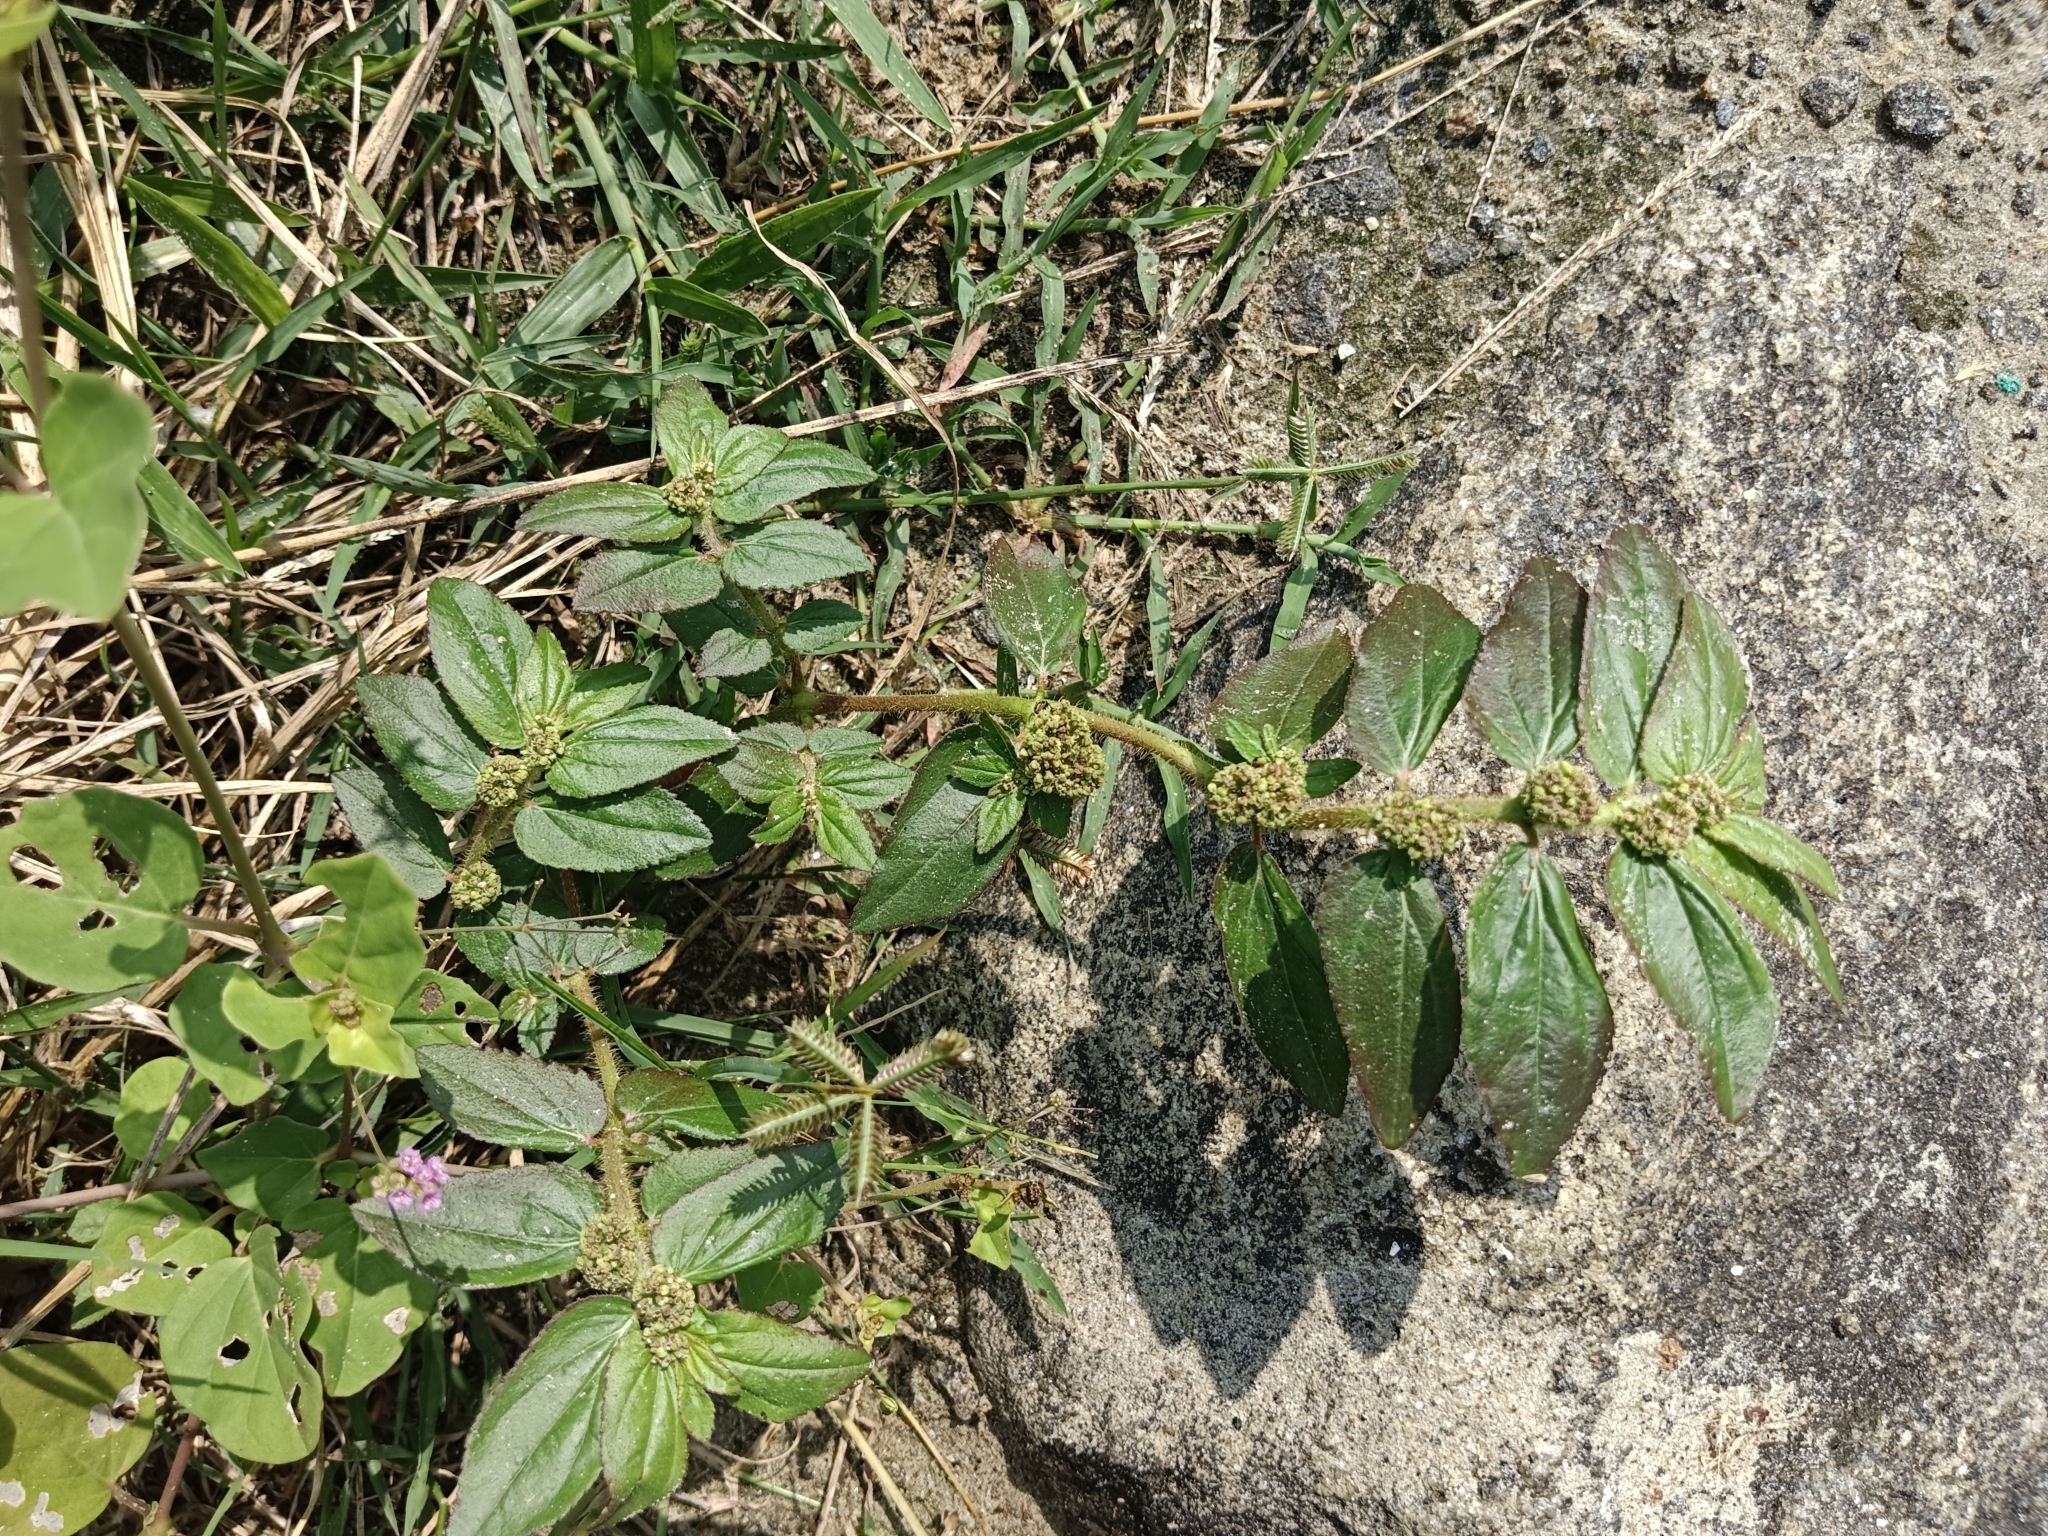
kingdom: Plantae
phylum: Tracheophyta
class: Magnoliopsida
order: Malpighiales
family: Euphorbiaceae
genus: Euphorbia
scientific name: Euphorbia hirta
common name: Pillpod sandmat
